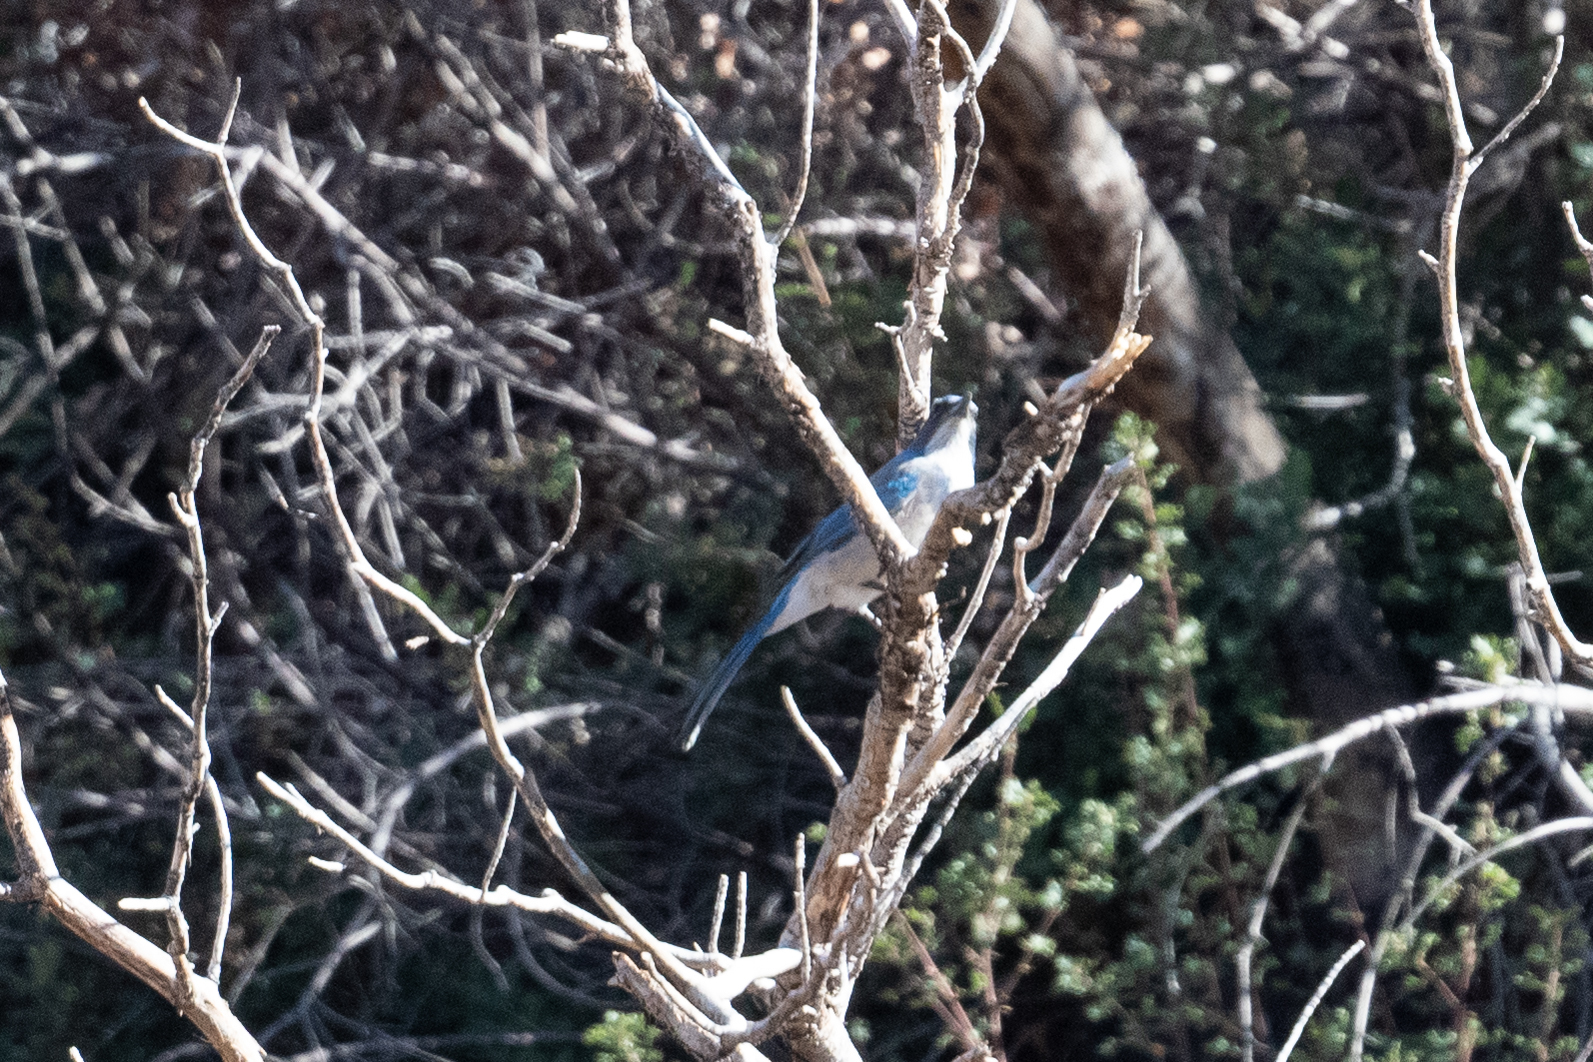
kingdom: Animalia
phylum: Chordata
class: Aves
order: Passeriformes
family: Corvidae
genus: Aphelocoma
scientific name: Aphelocoma californica
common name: California scrub-jay
